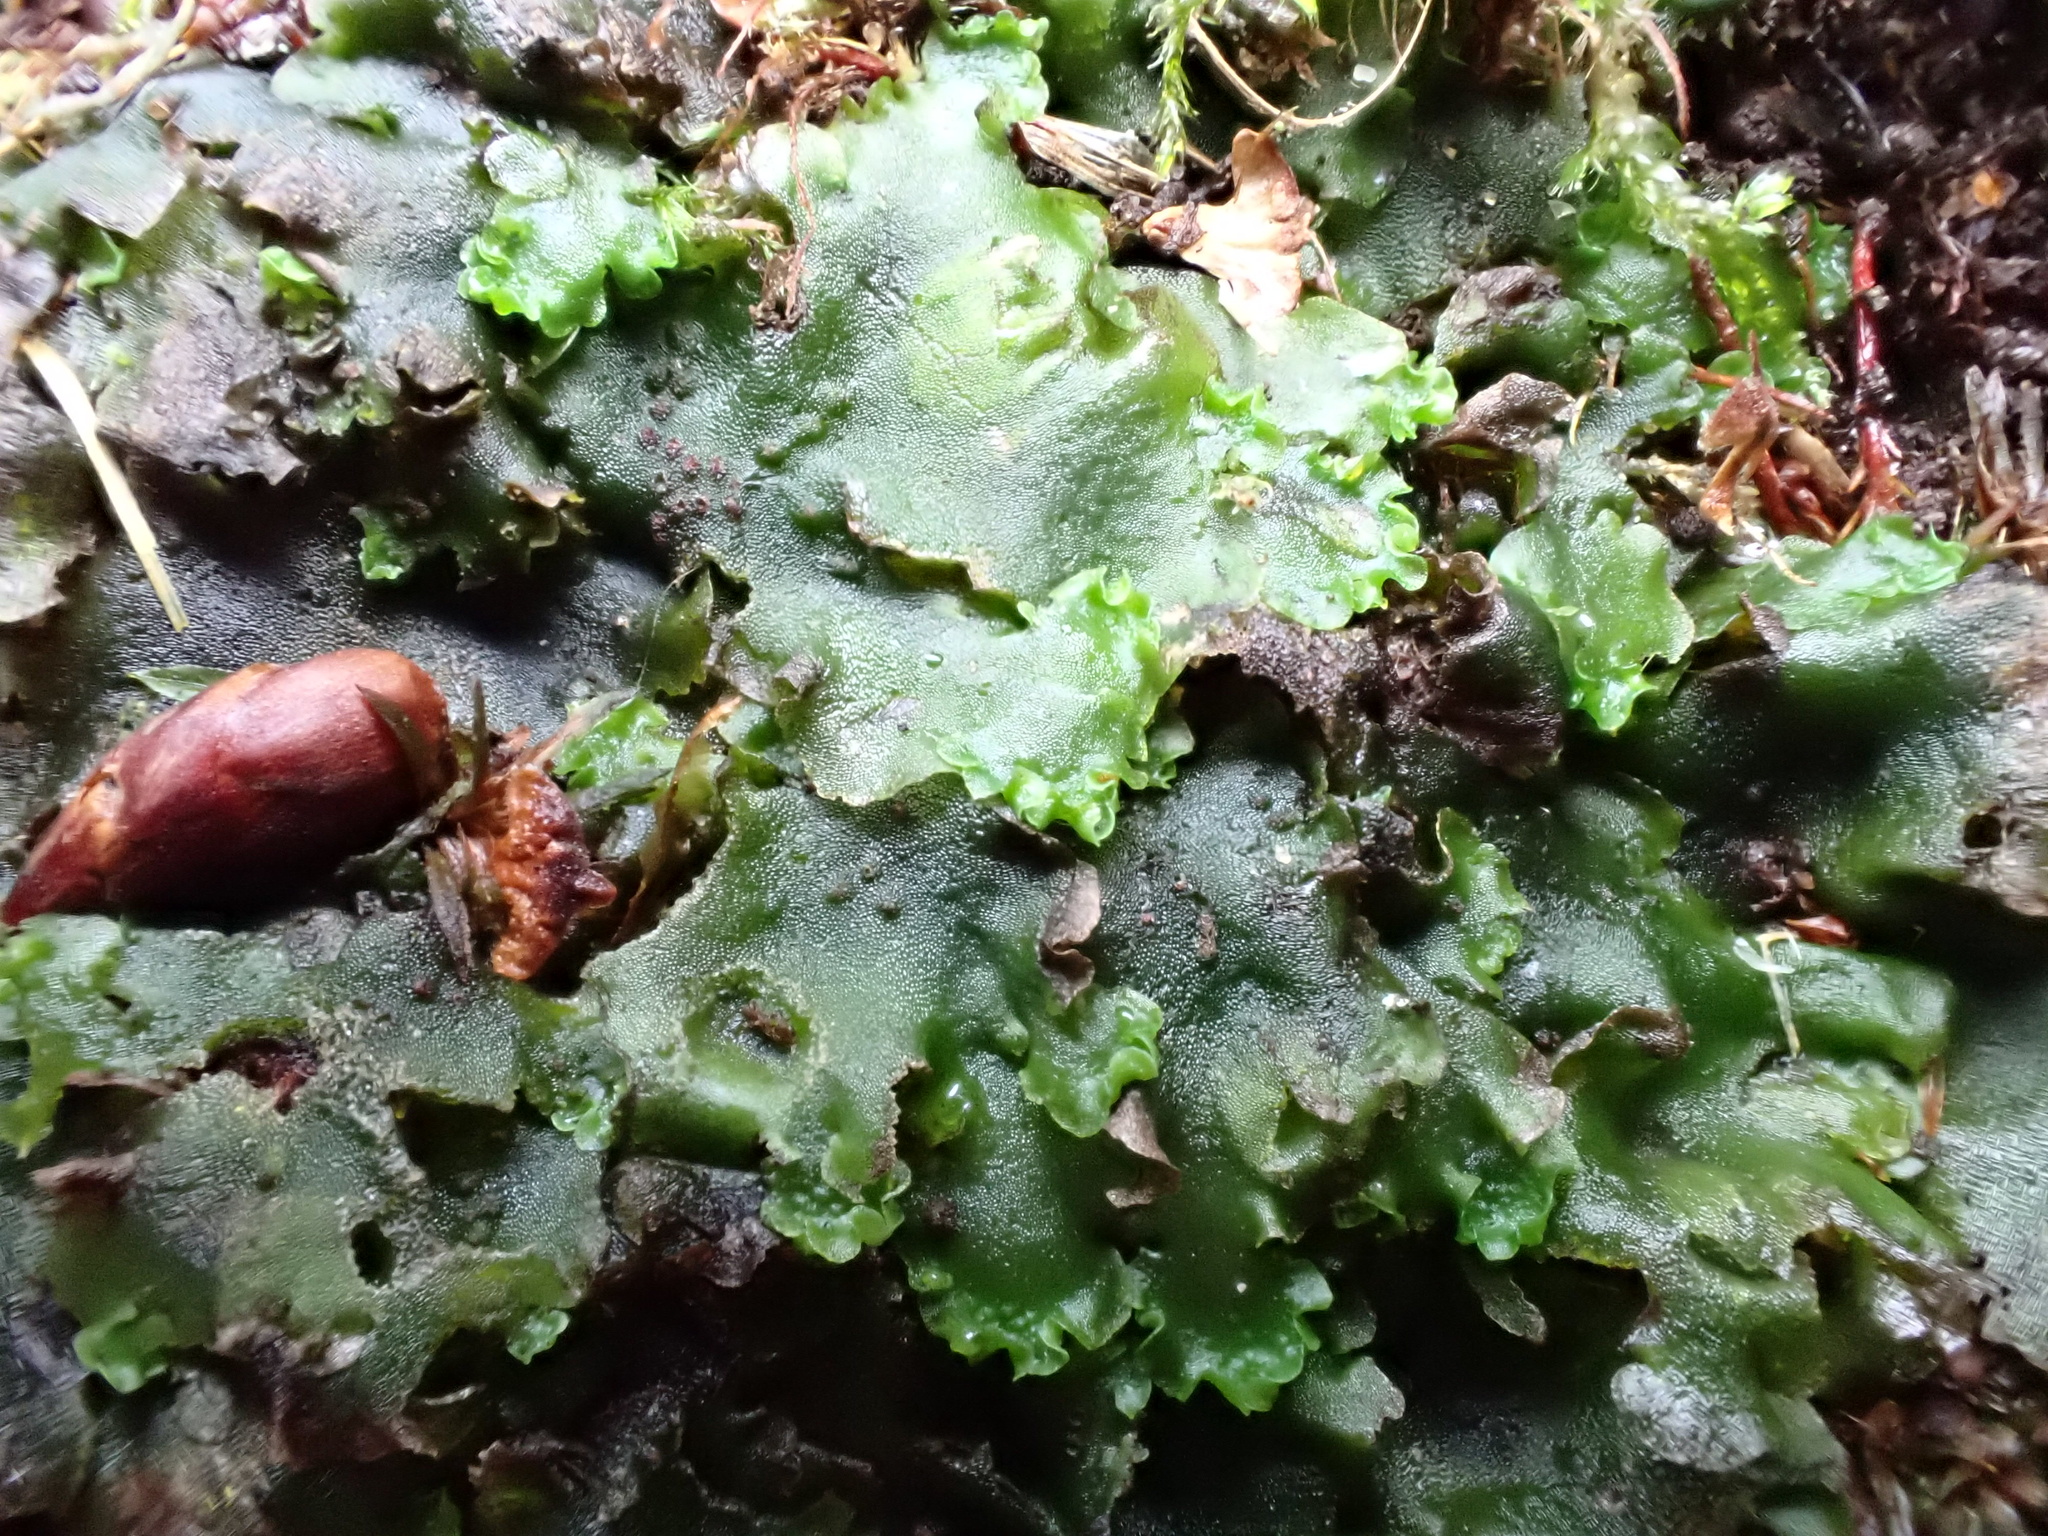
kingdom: Plantae
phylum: Marchantiophyta
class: Jungermanniopsida
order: Pelliales
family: Pelliaceae
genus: Pellia
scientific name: Pellia epiphylla
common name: Common pellia
